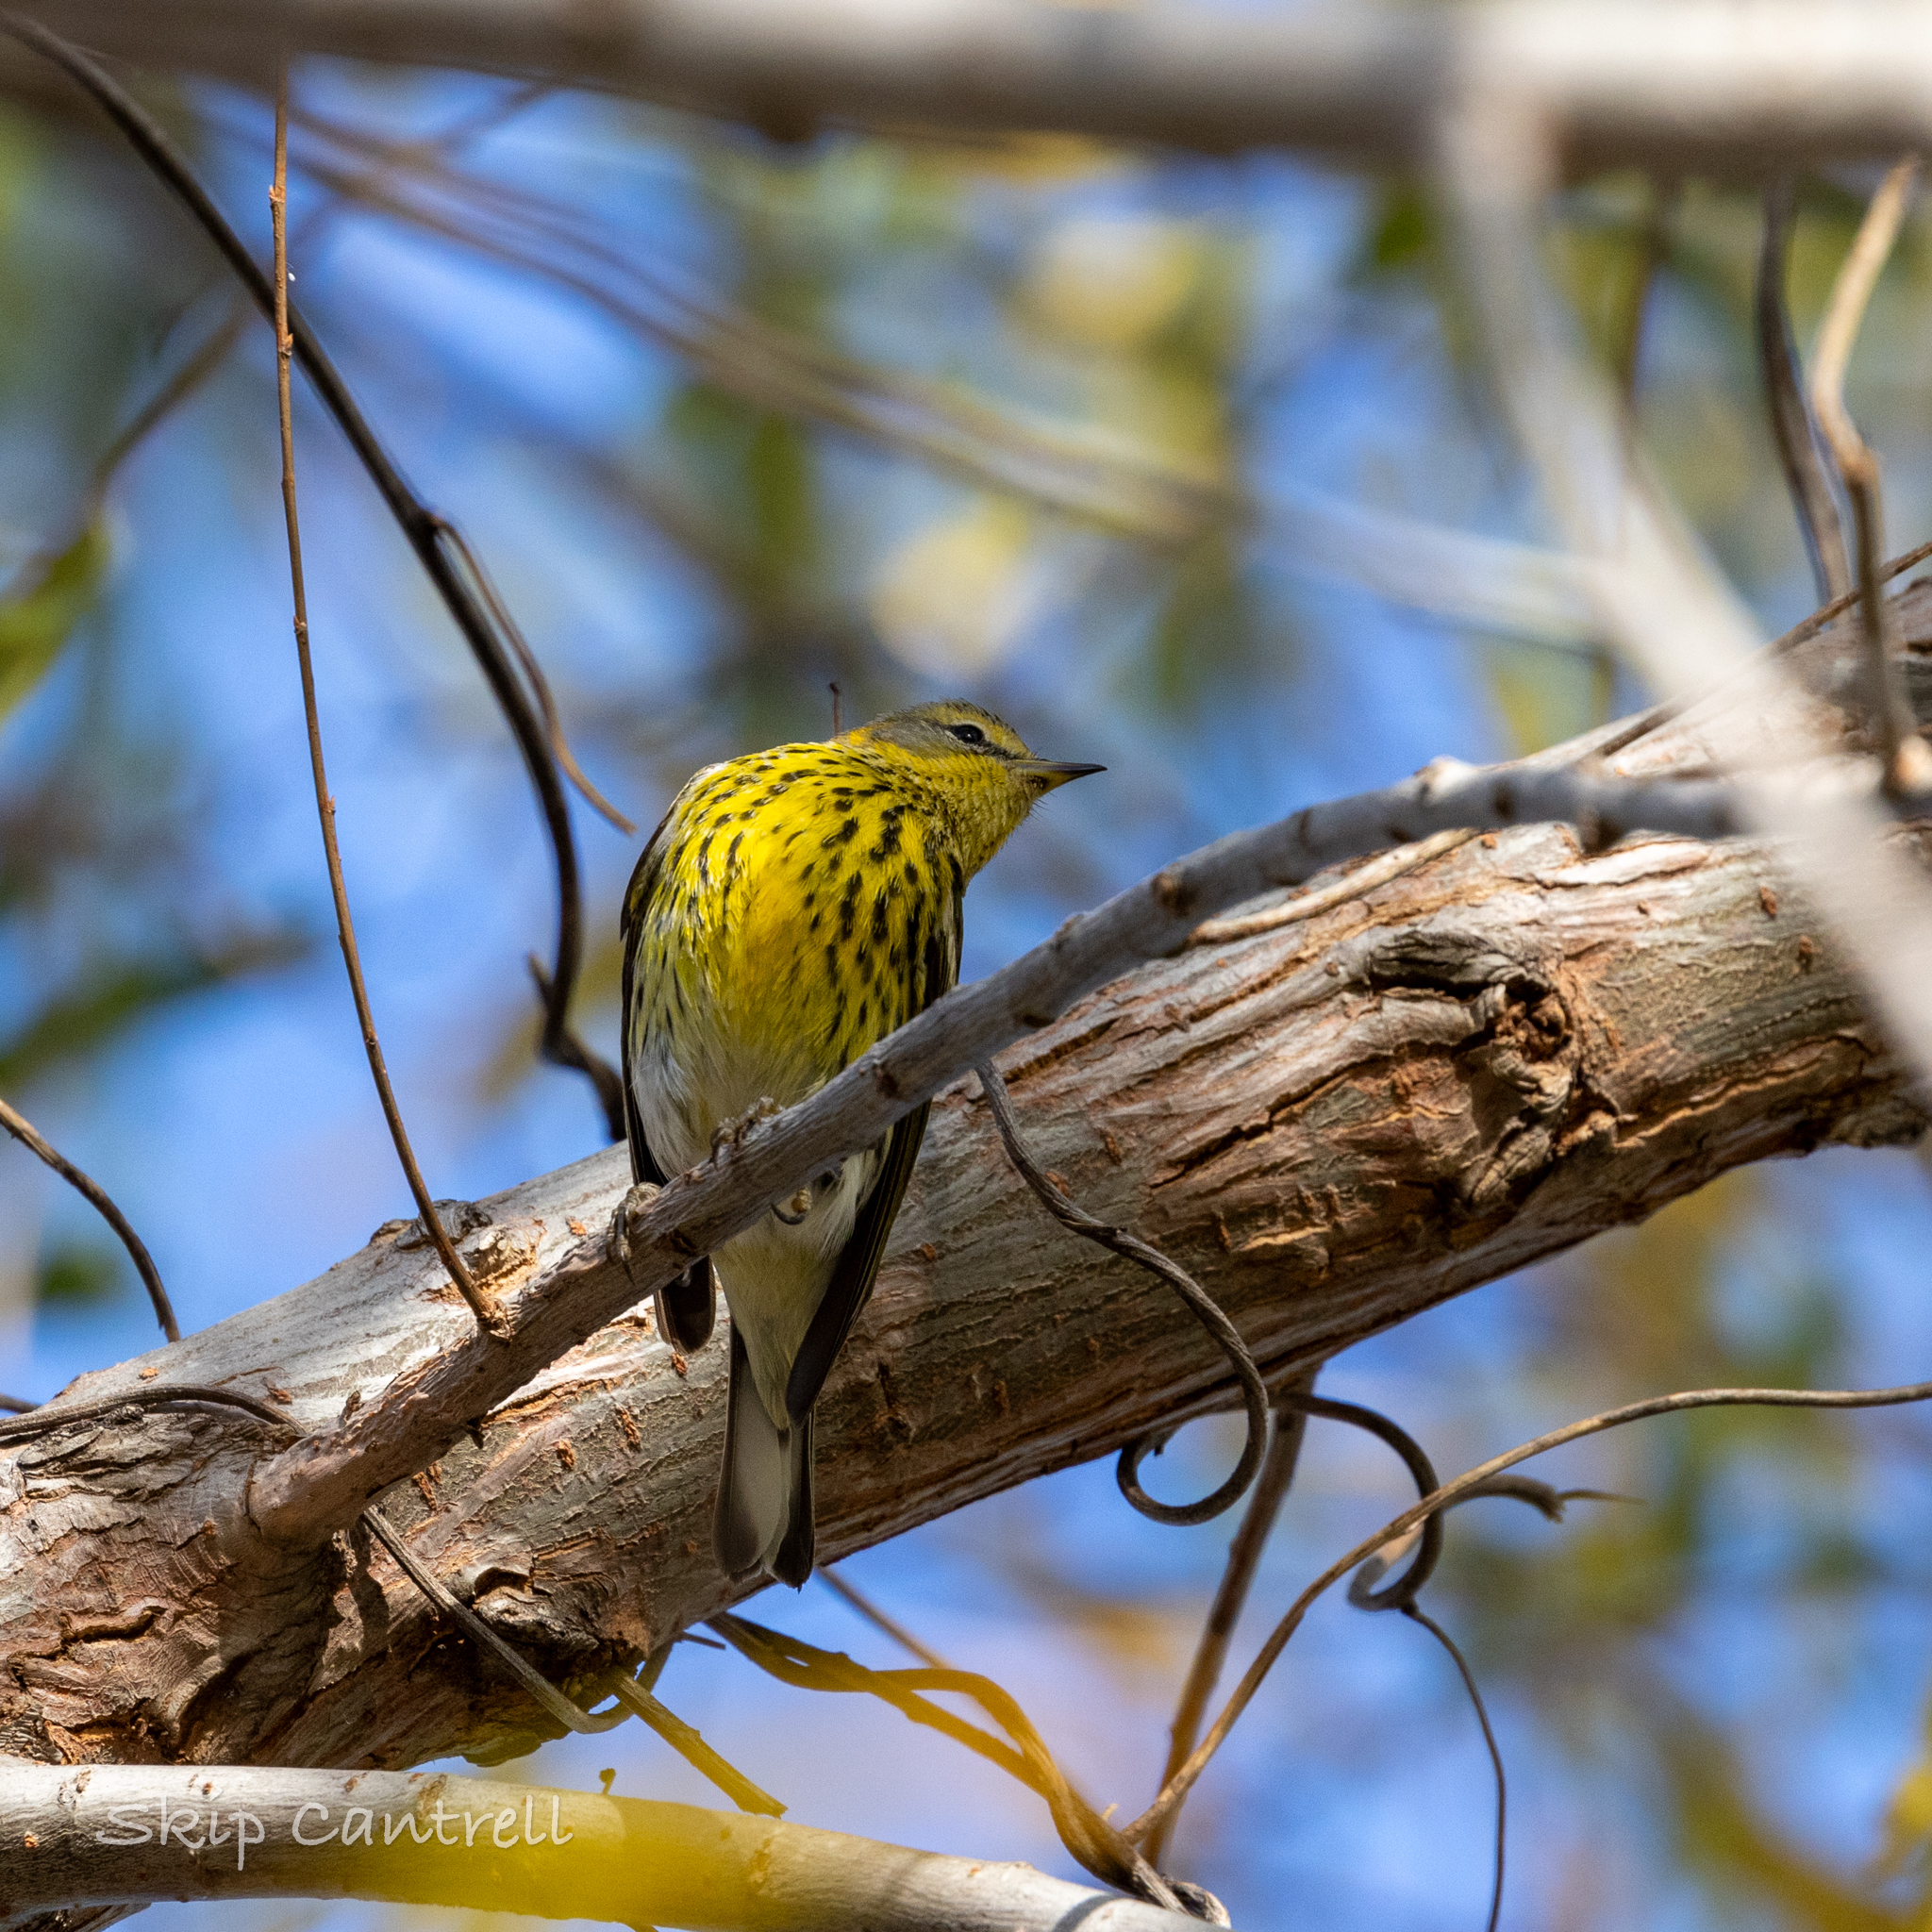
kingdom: Animalia
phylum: Chordata
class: Aves
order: Passeriformes
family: Parulidae
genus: Setophaga
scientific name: Setophaga tigrina
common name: Cape may warbler
